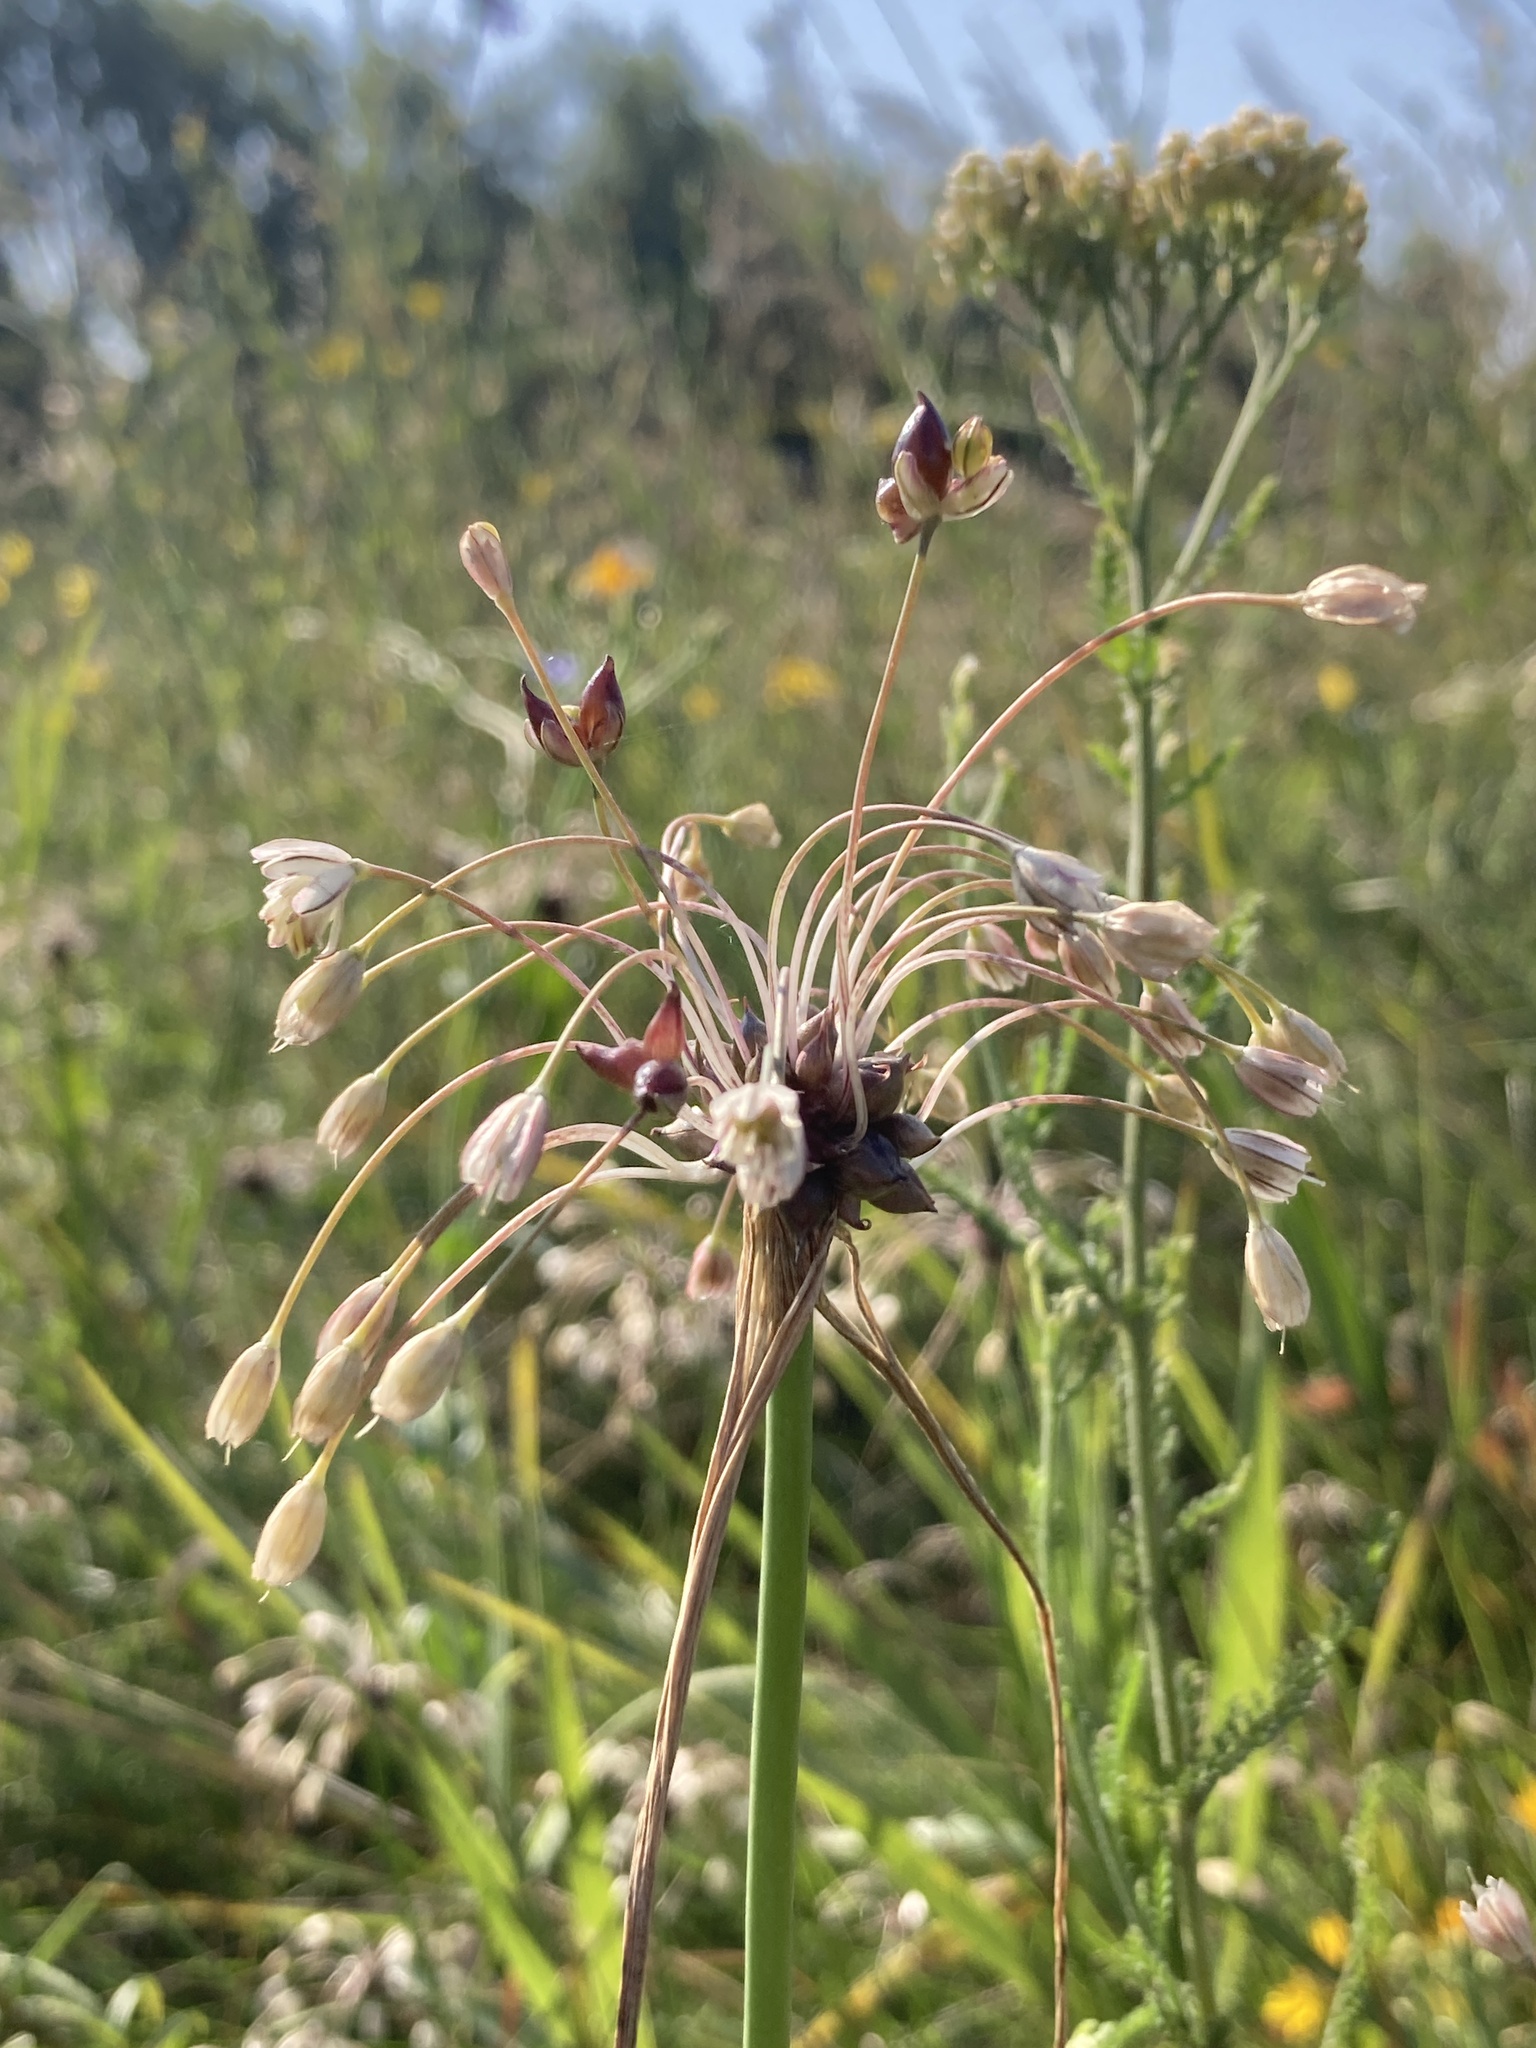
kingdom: Plantae
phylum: Tracheophyta
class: Liliopsida
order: Asparagales
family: Amaryllidaceae
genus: Allium
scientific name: Allium oleraceum
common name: Field garlic
